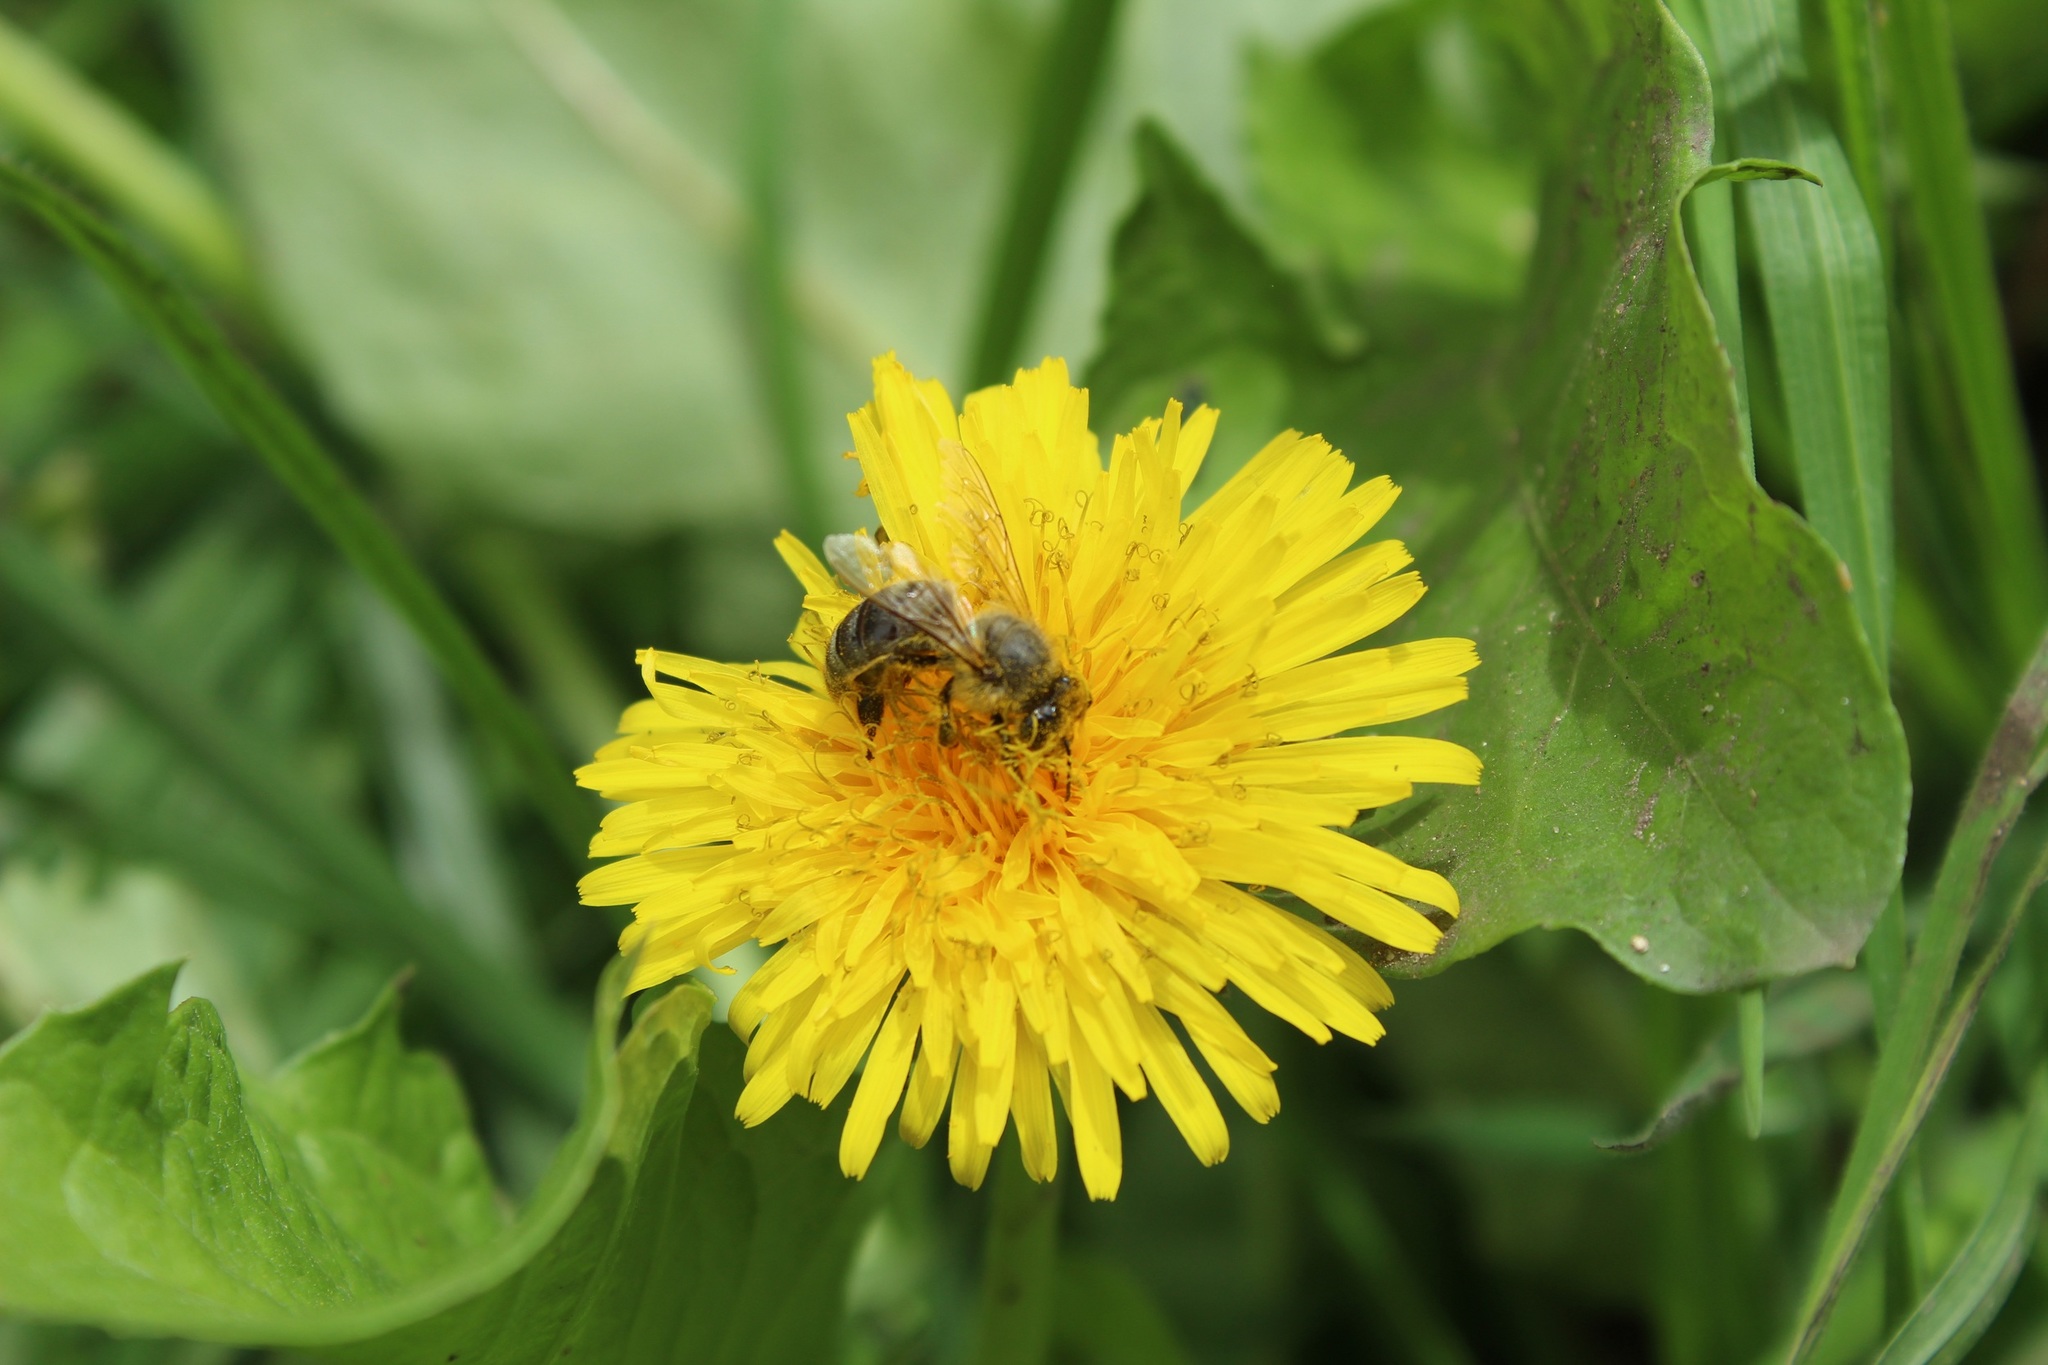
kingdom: Animalia
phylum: Arthropoda
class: Insecta
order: Hymenoptera
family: Apidae
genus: Apis
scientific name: Apis mellifera
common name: Honey bee
